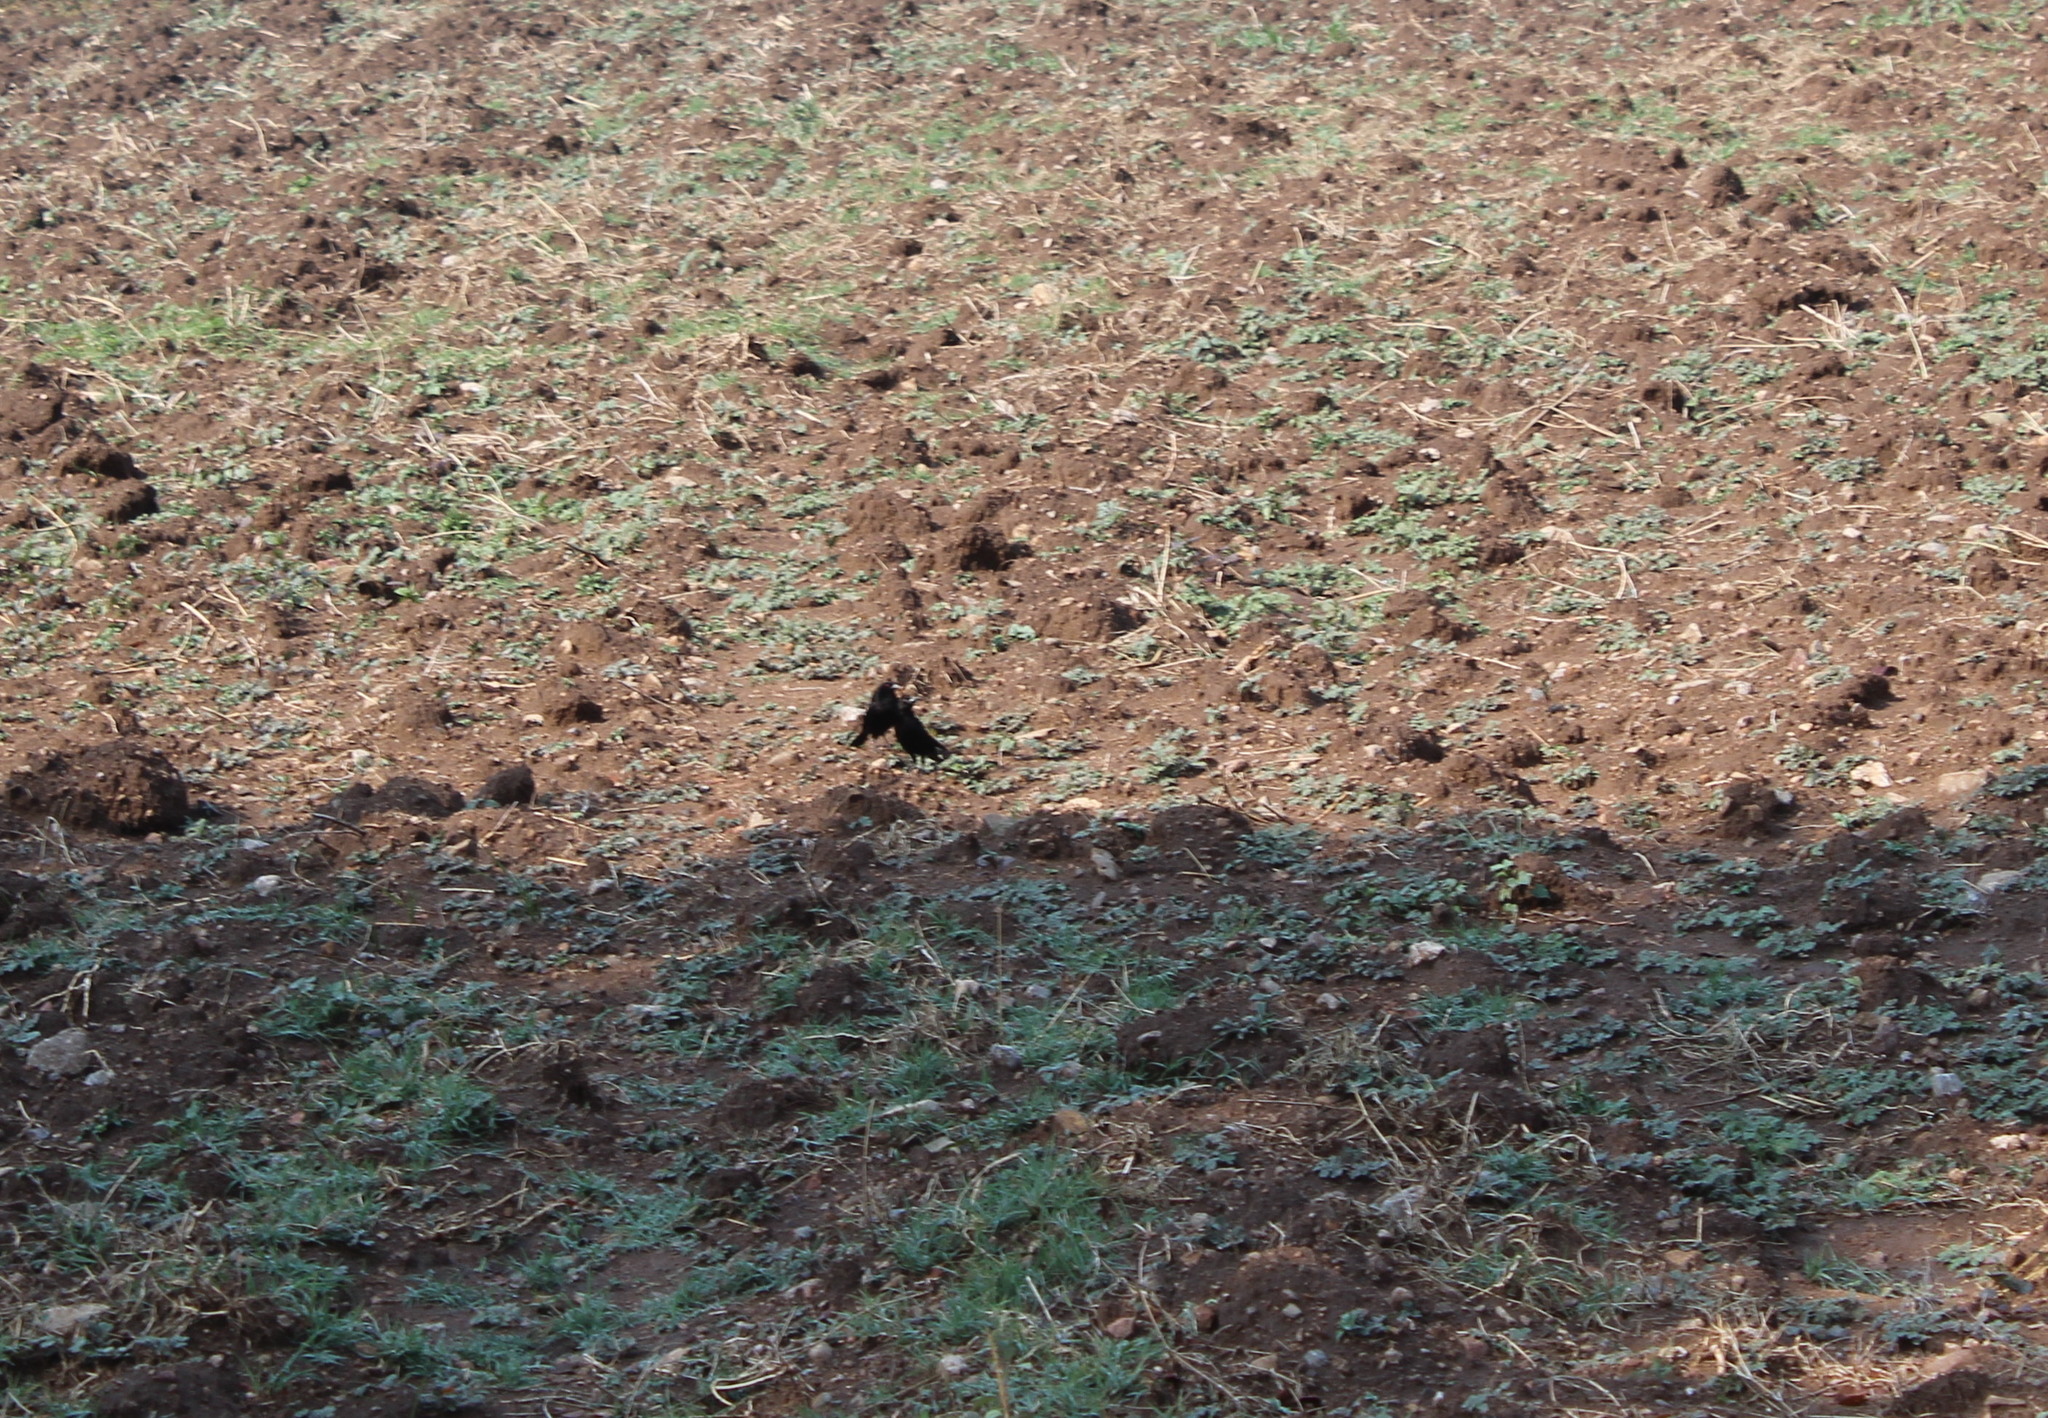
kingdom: Animalia
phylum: Chordata
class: Aves
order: Passeriformes
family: Icteridae
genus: Molothrus
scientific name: Molothrus aeneus
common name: Bronzed cowbird
